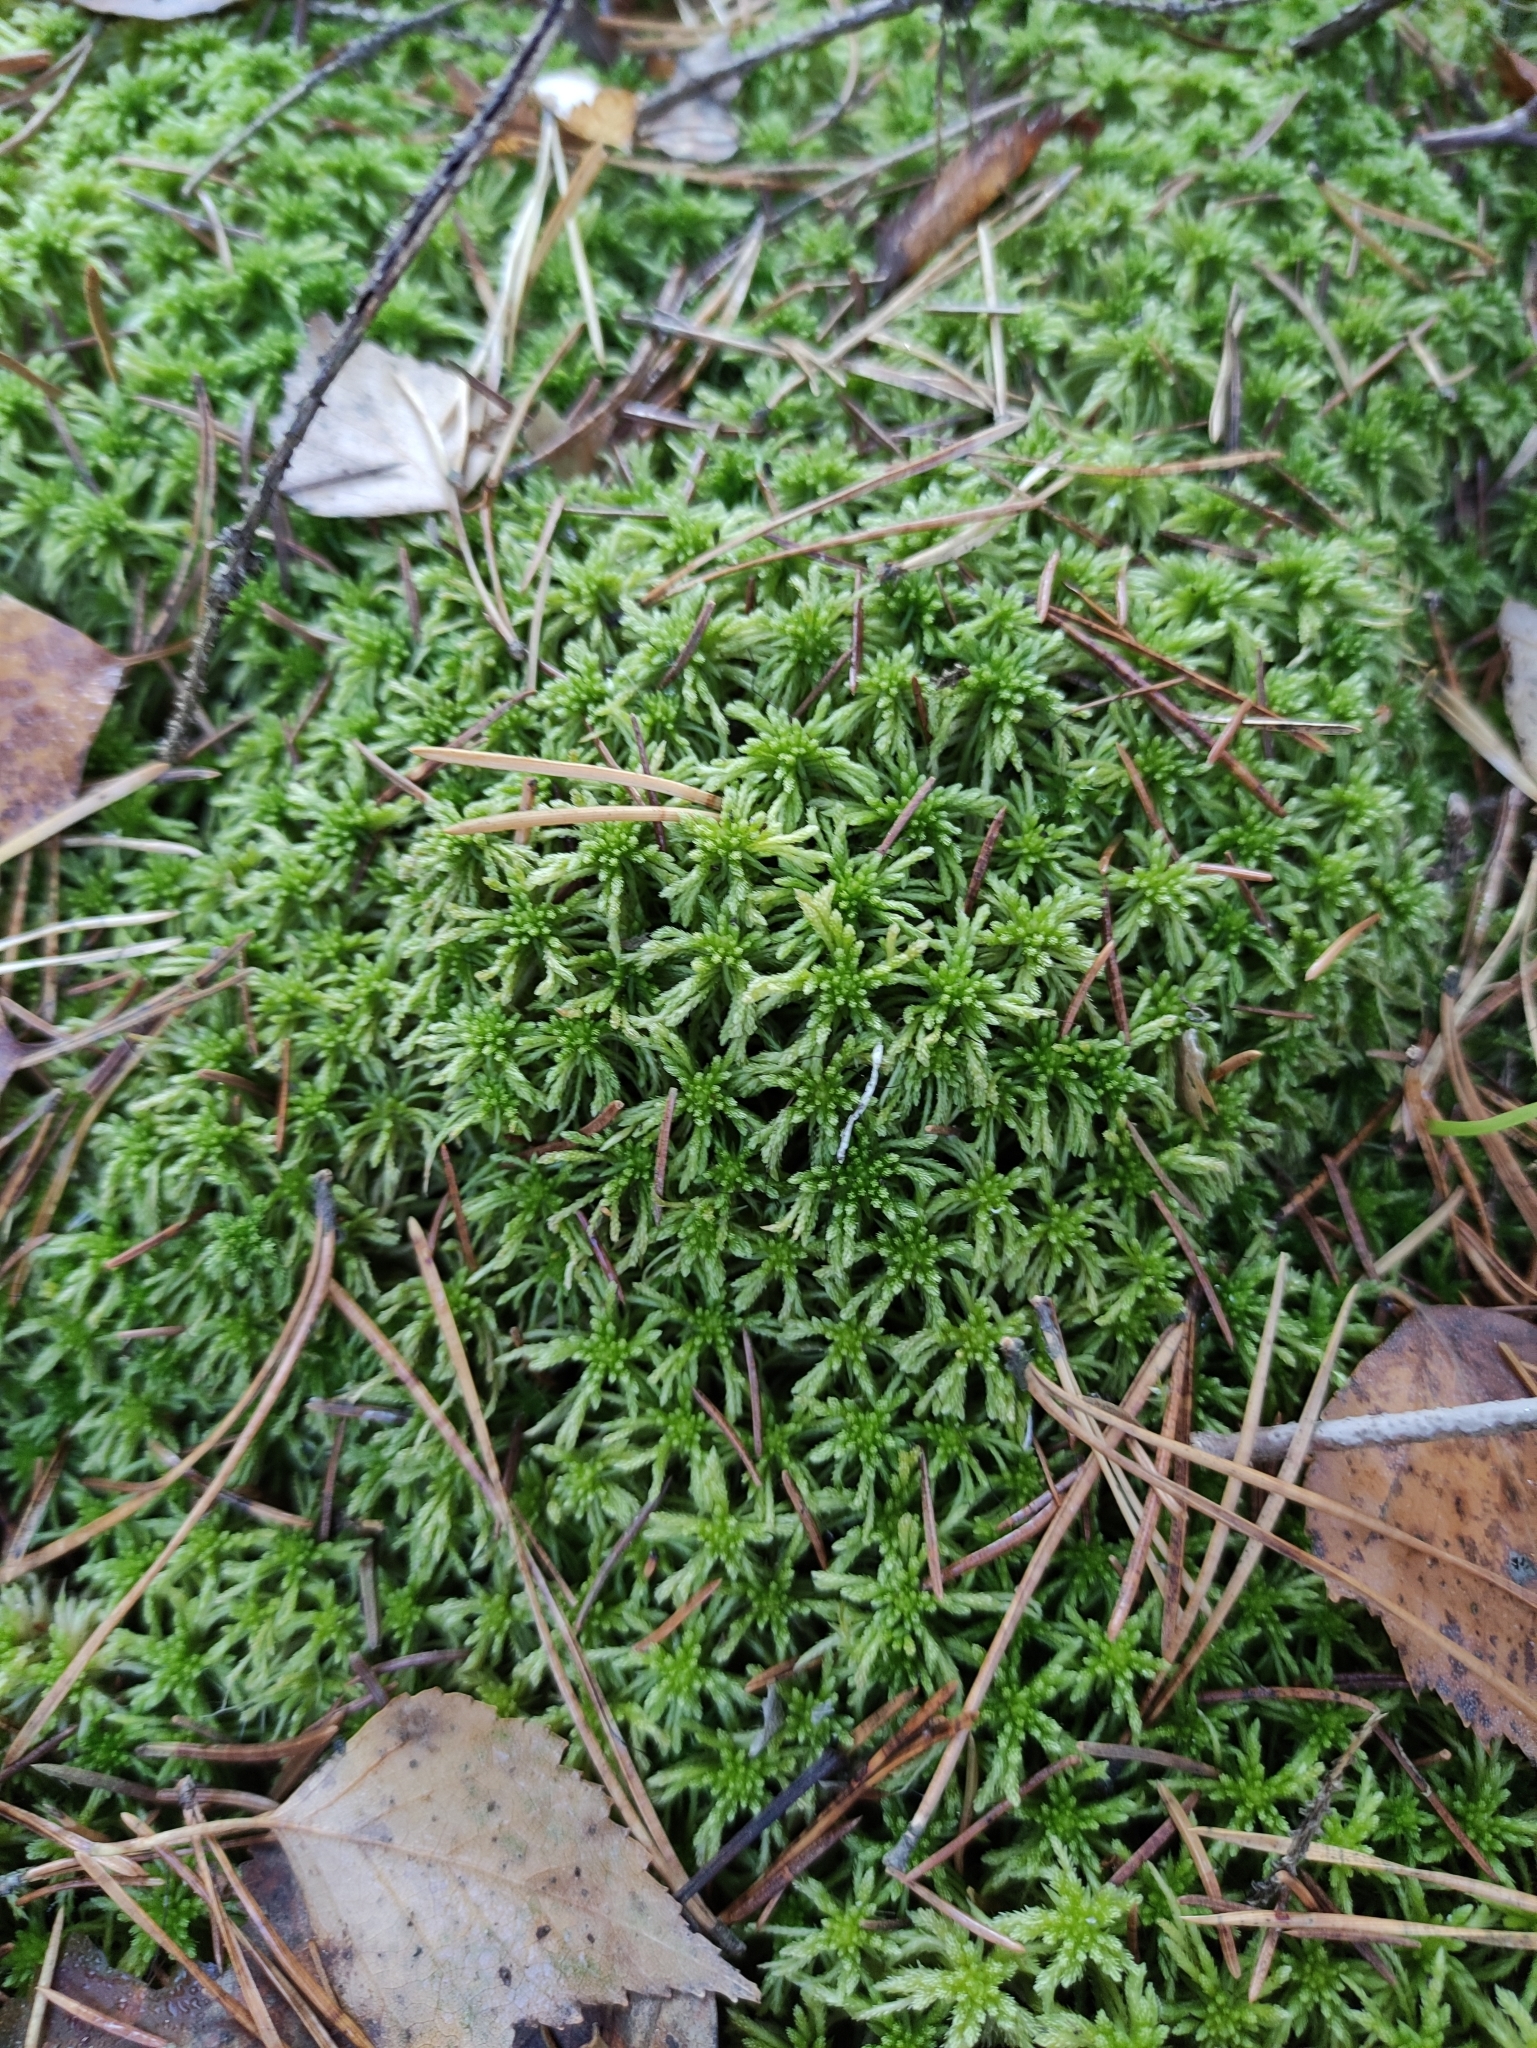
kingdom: Plantae
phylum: Bryophyta
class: Sphagnopsida
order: Sphagnales
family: Sphagnaceae
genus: Sphagnum
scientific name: Sphagnum girgensohnii
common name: Girgensohn's peat moss
